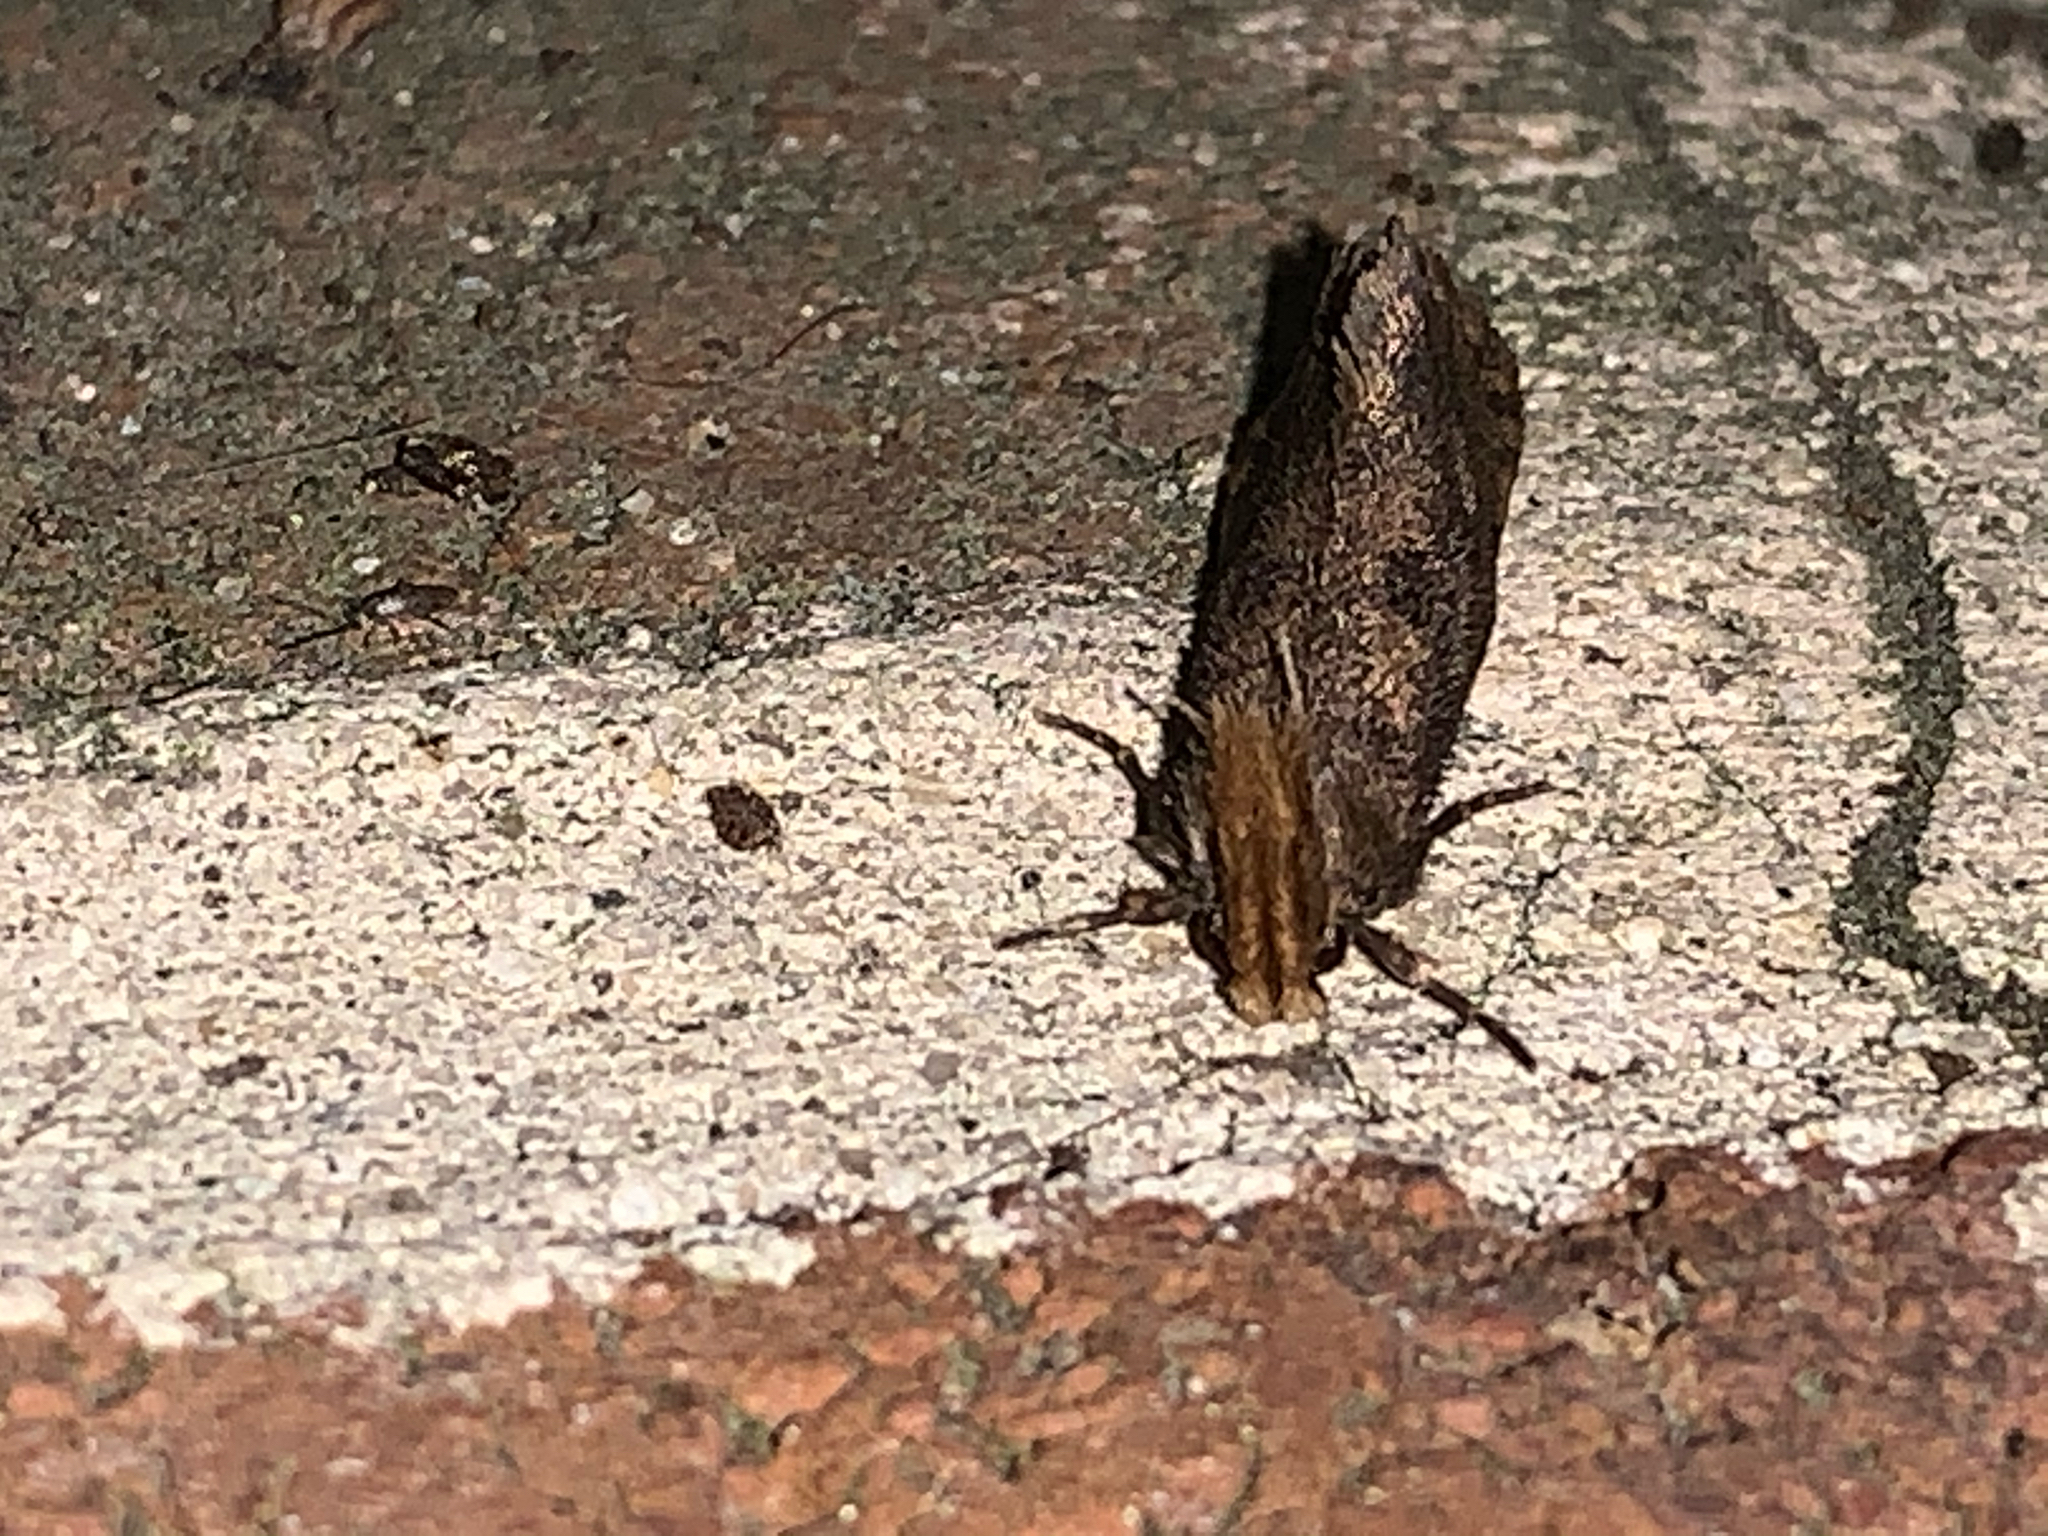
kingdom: Animalia
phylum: Arthropoda
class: Insecta
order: Lepidoptera
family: Tineidae
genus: Acrolophus
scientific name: Acrolophus propinqua
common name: Walsingham's grass tubeworm moth
